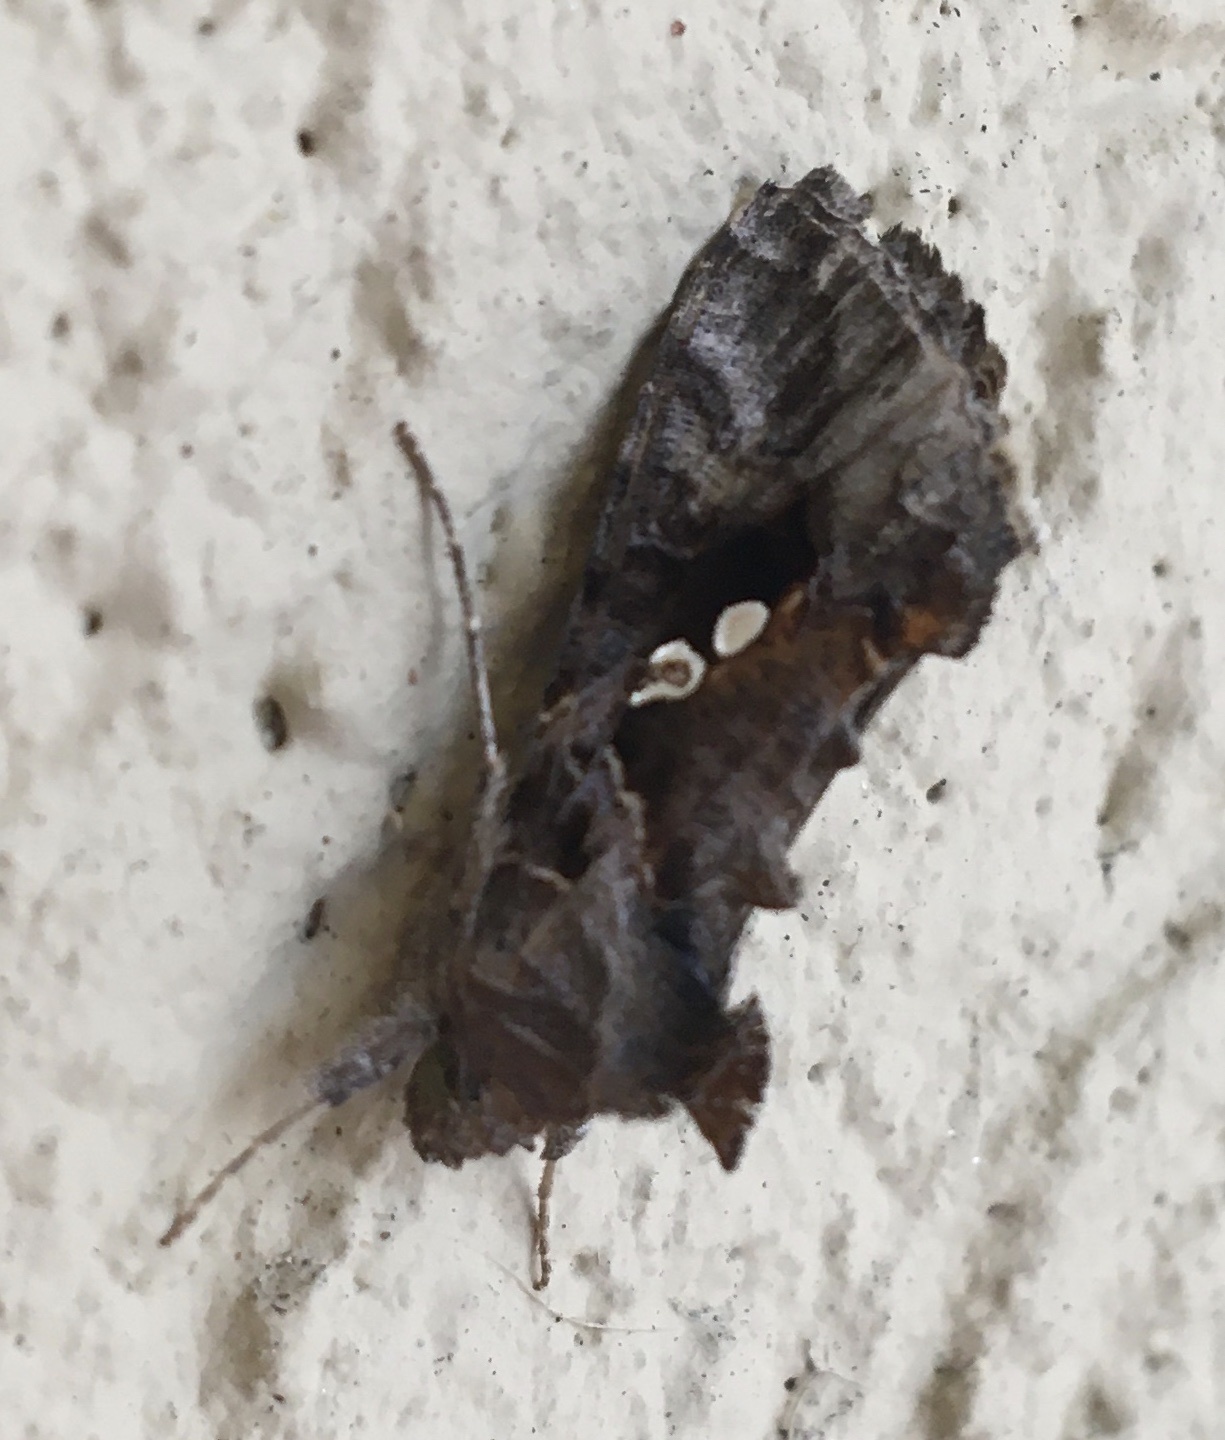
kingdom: Animalia
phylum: Arthropoda
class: Insecta
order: Lepidoptera
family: Noctuidae
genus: Chrysodeixis
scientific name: Chrysodeixis includens
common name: Cutworm moth
